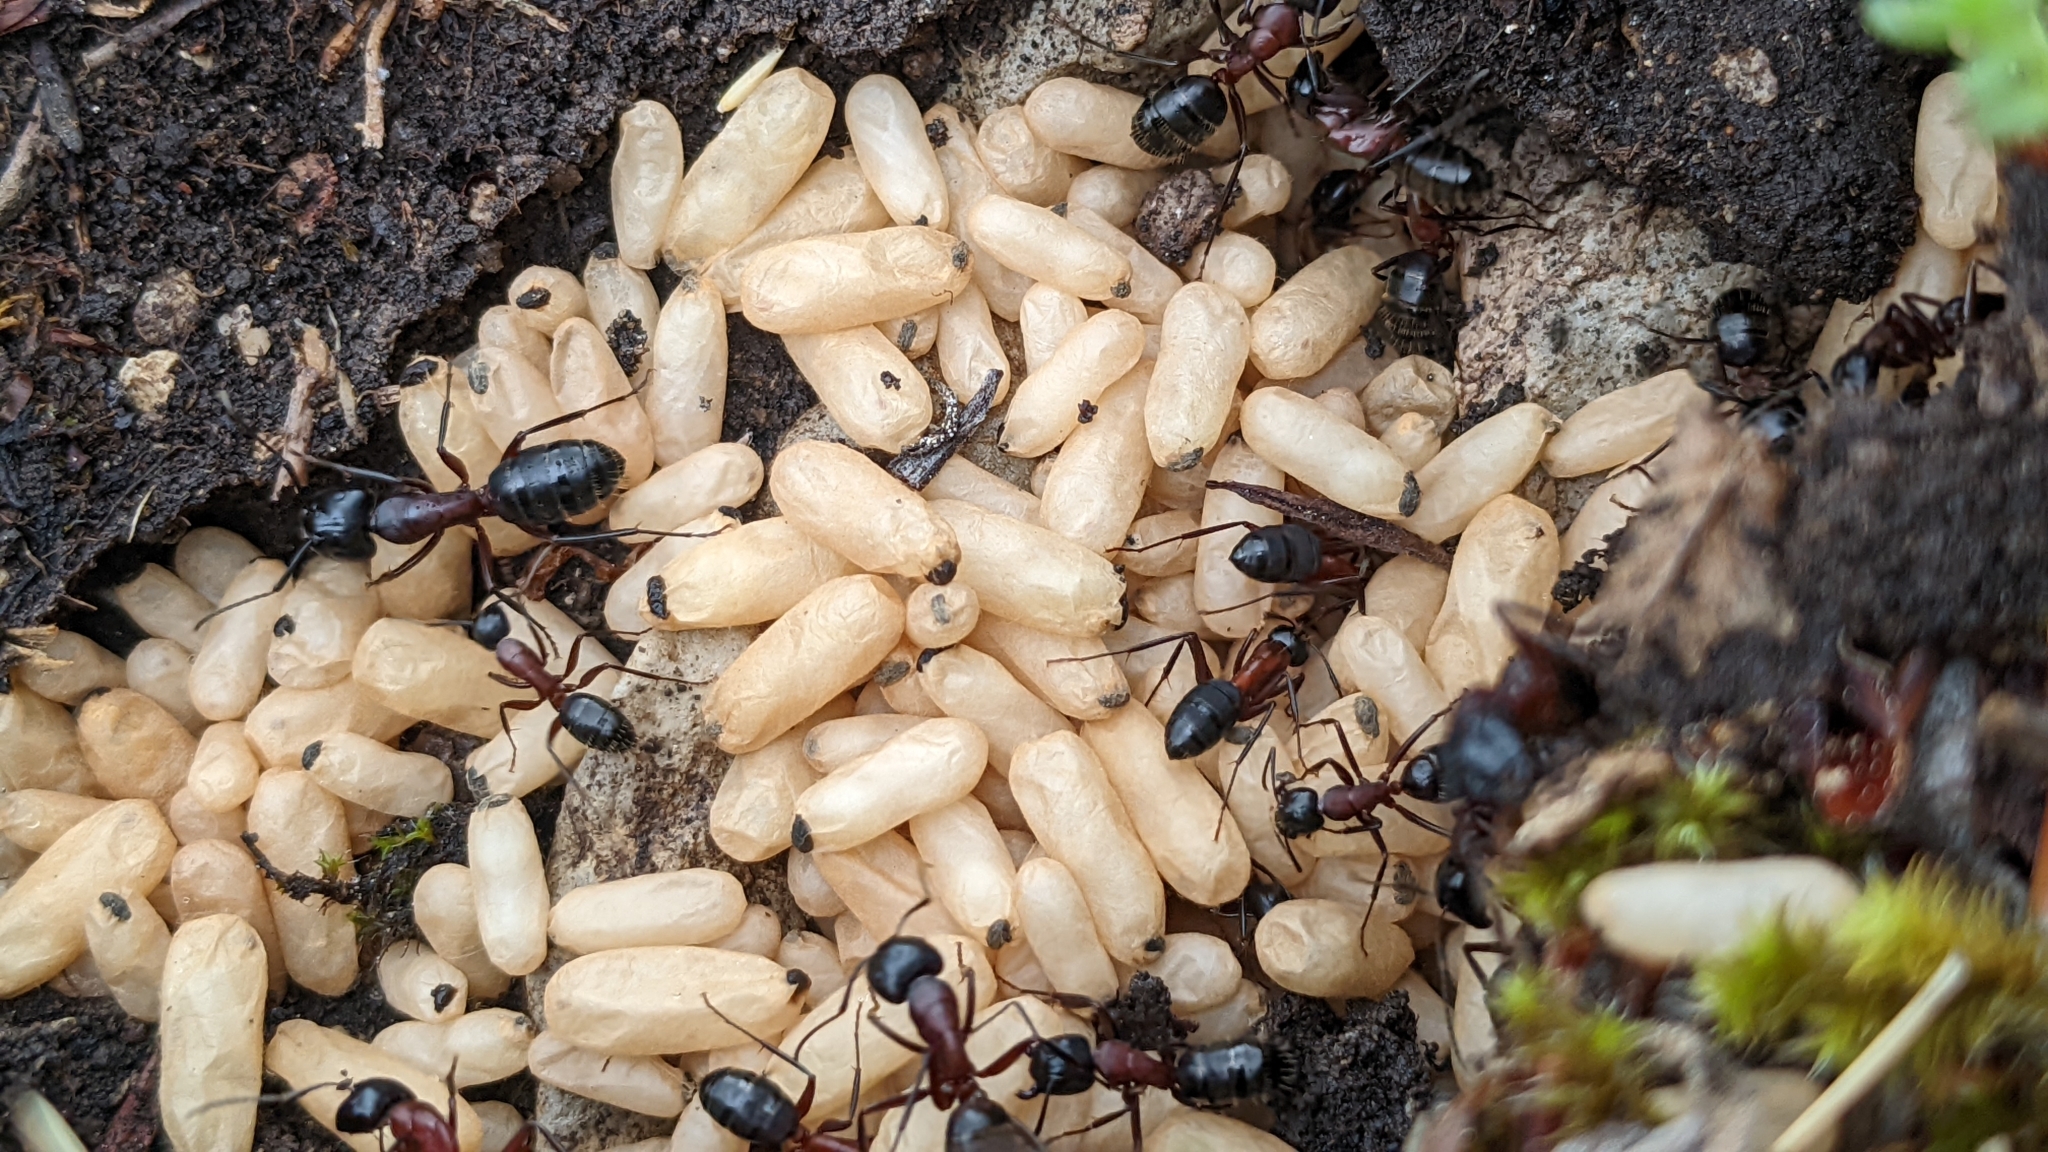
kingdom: Animalia
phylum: Arthropoda
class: Insecta
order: Hymenoptera
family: Formicidae
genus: Camponotus
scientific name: Camponotus ligniperdus
